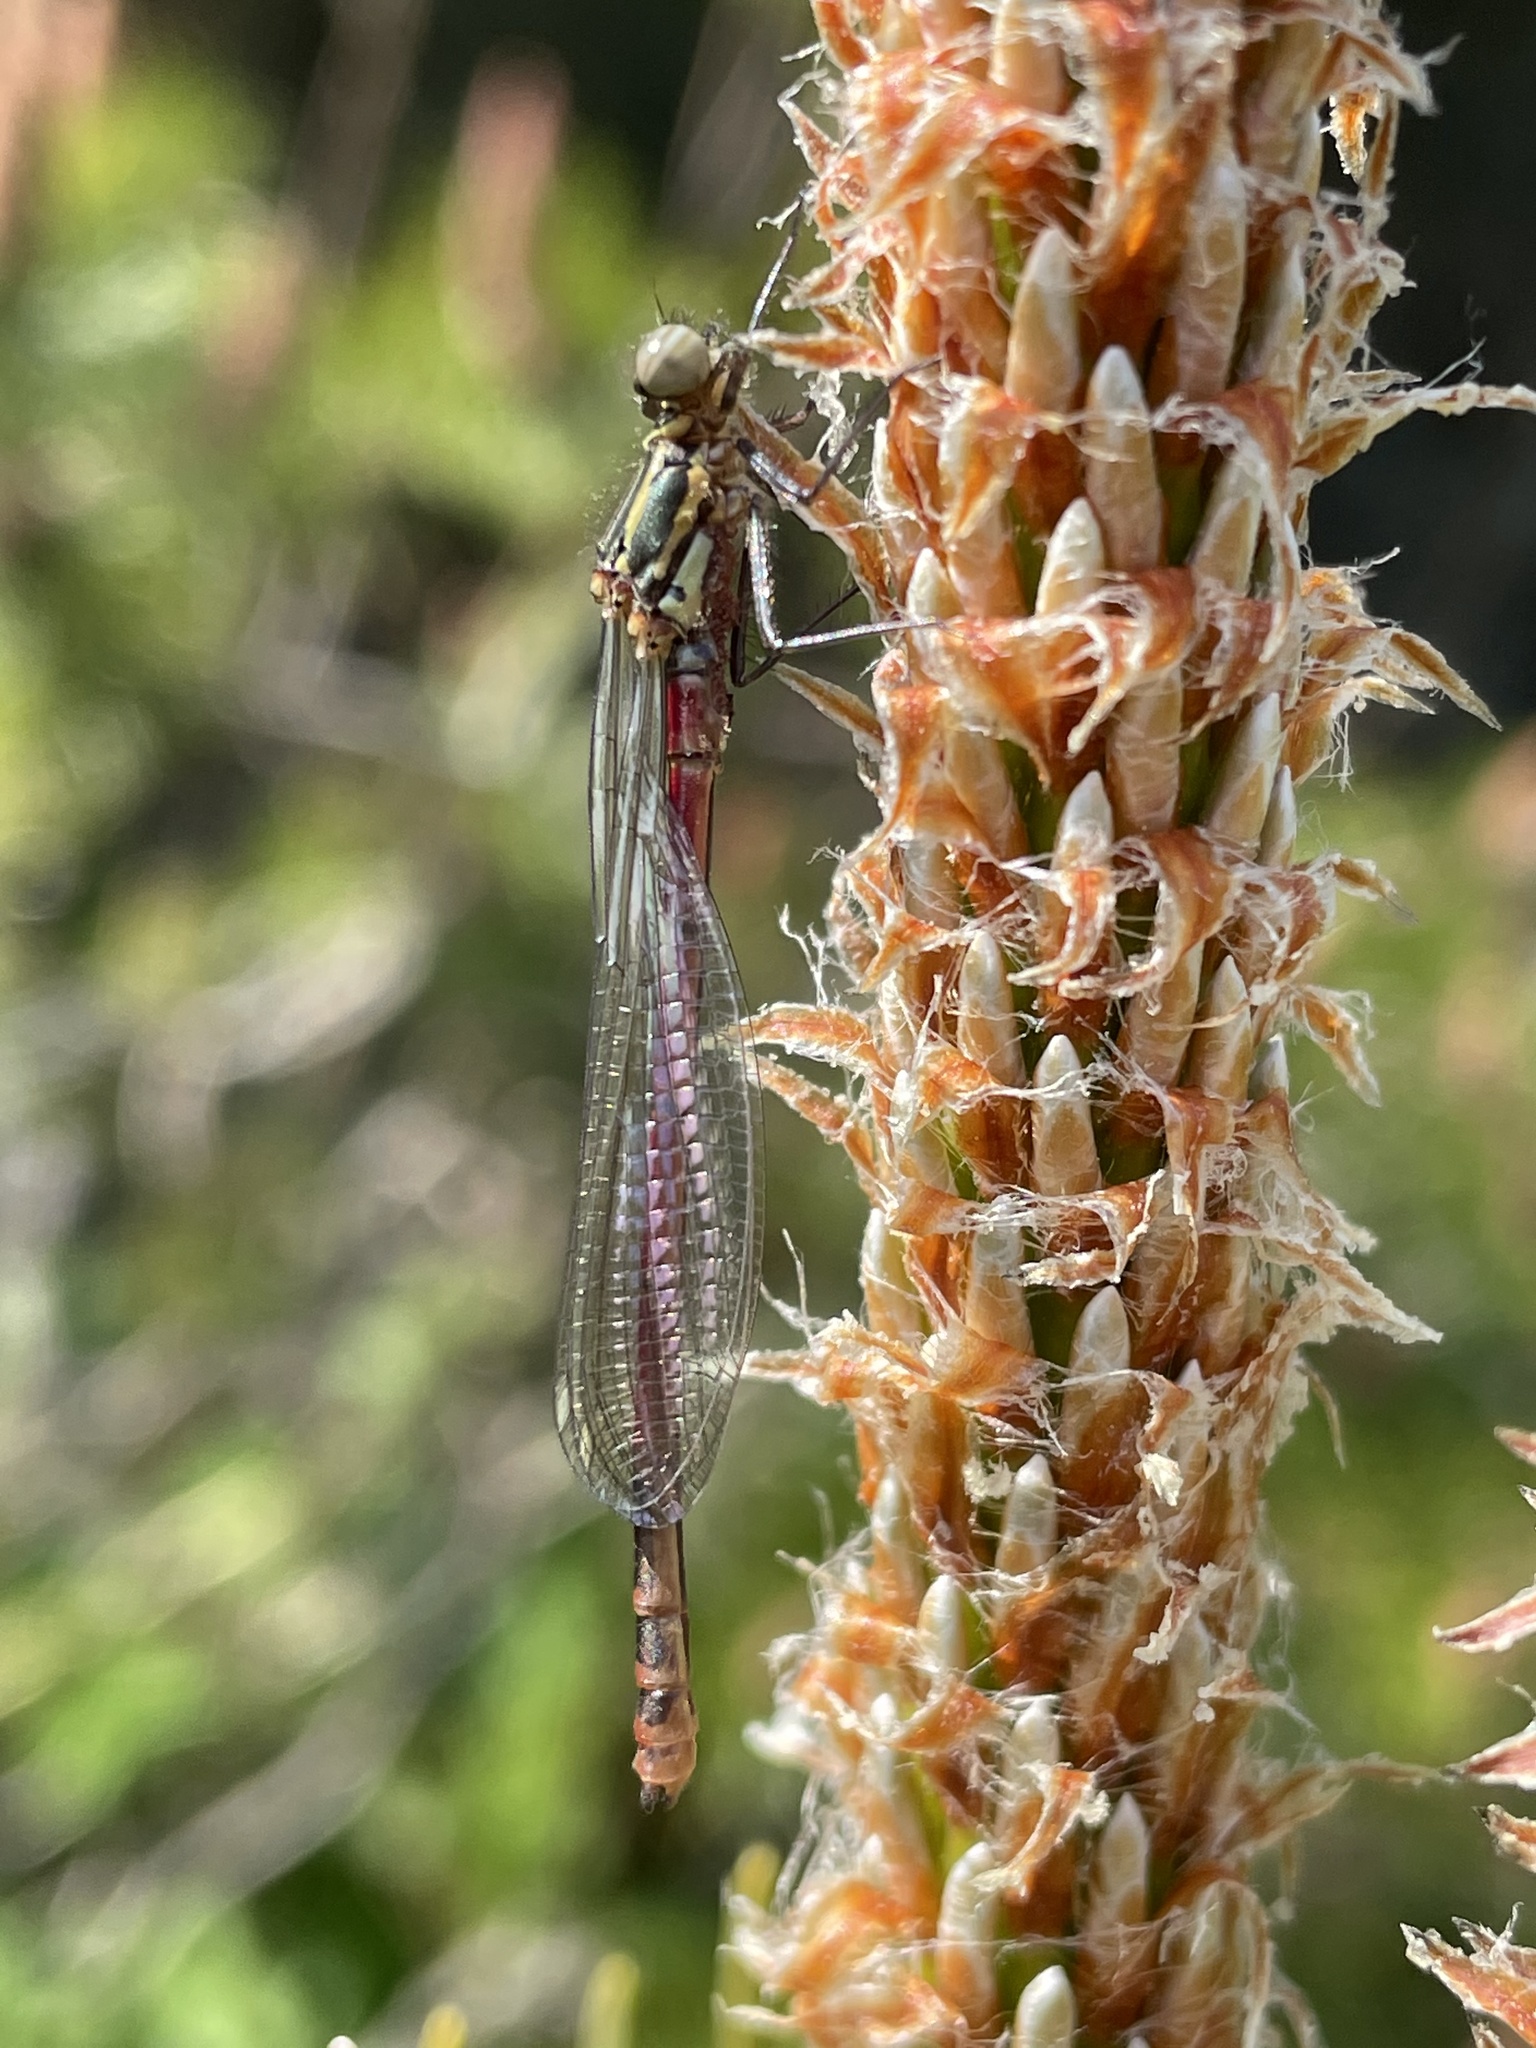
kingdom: Animalia
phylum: Arthropoda
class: Insecta
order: Odonata
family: Coenagrionidae
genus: Pyrrhosoma
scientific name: Pyrrhosoma nymphula
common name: Large red damsel
